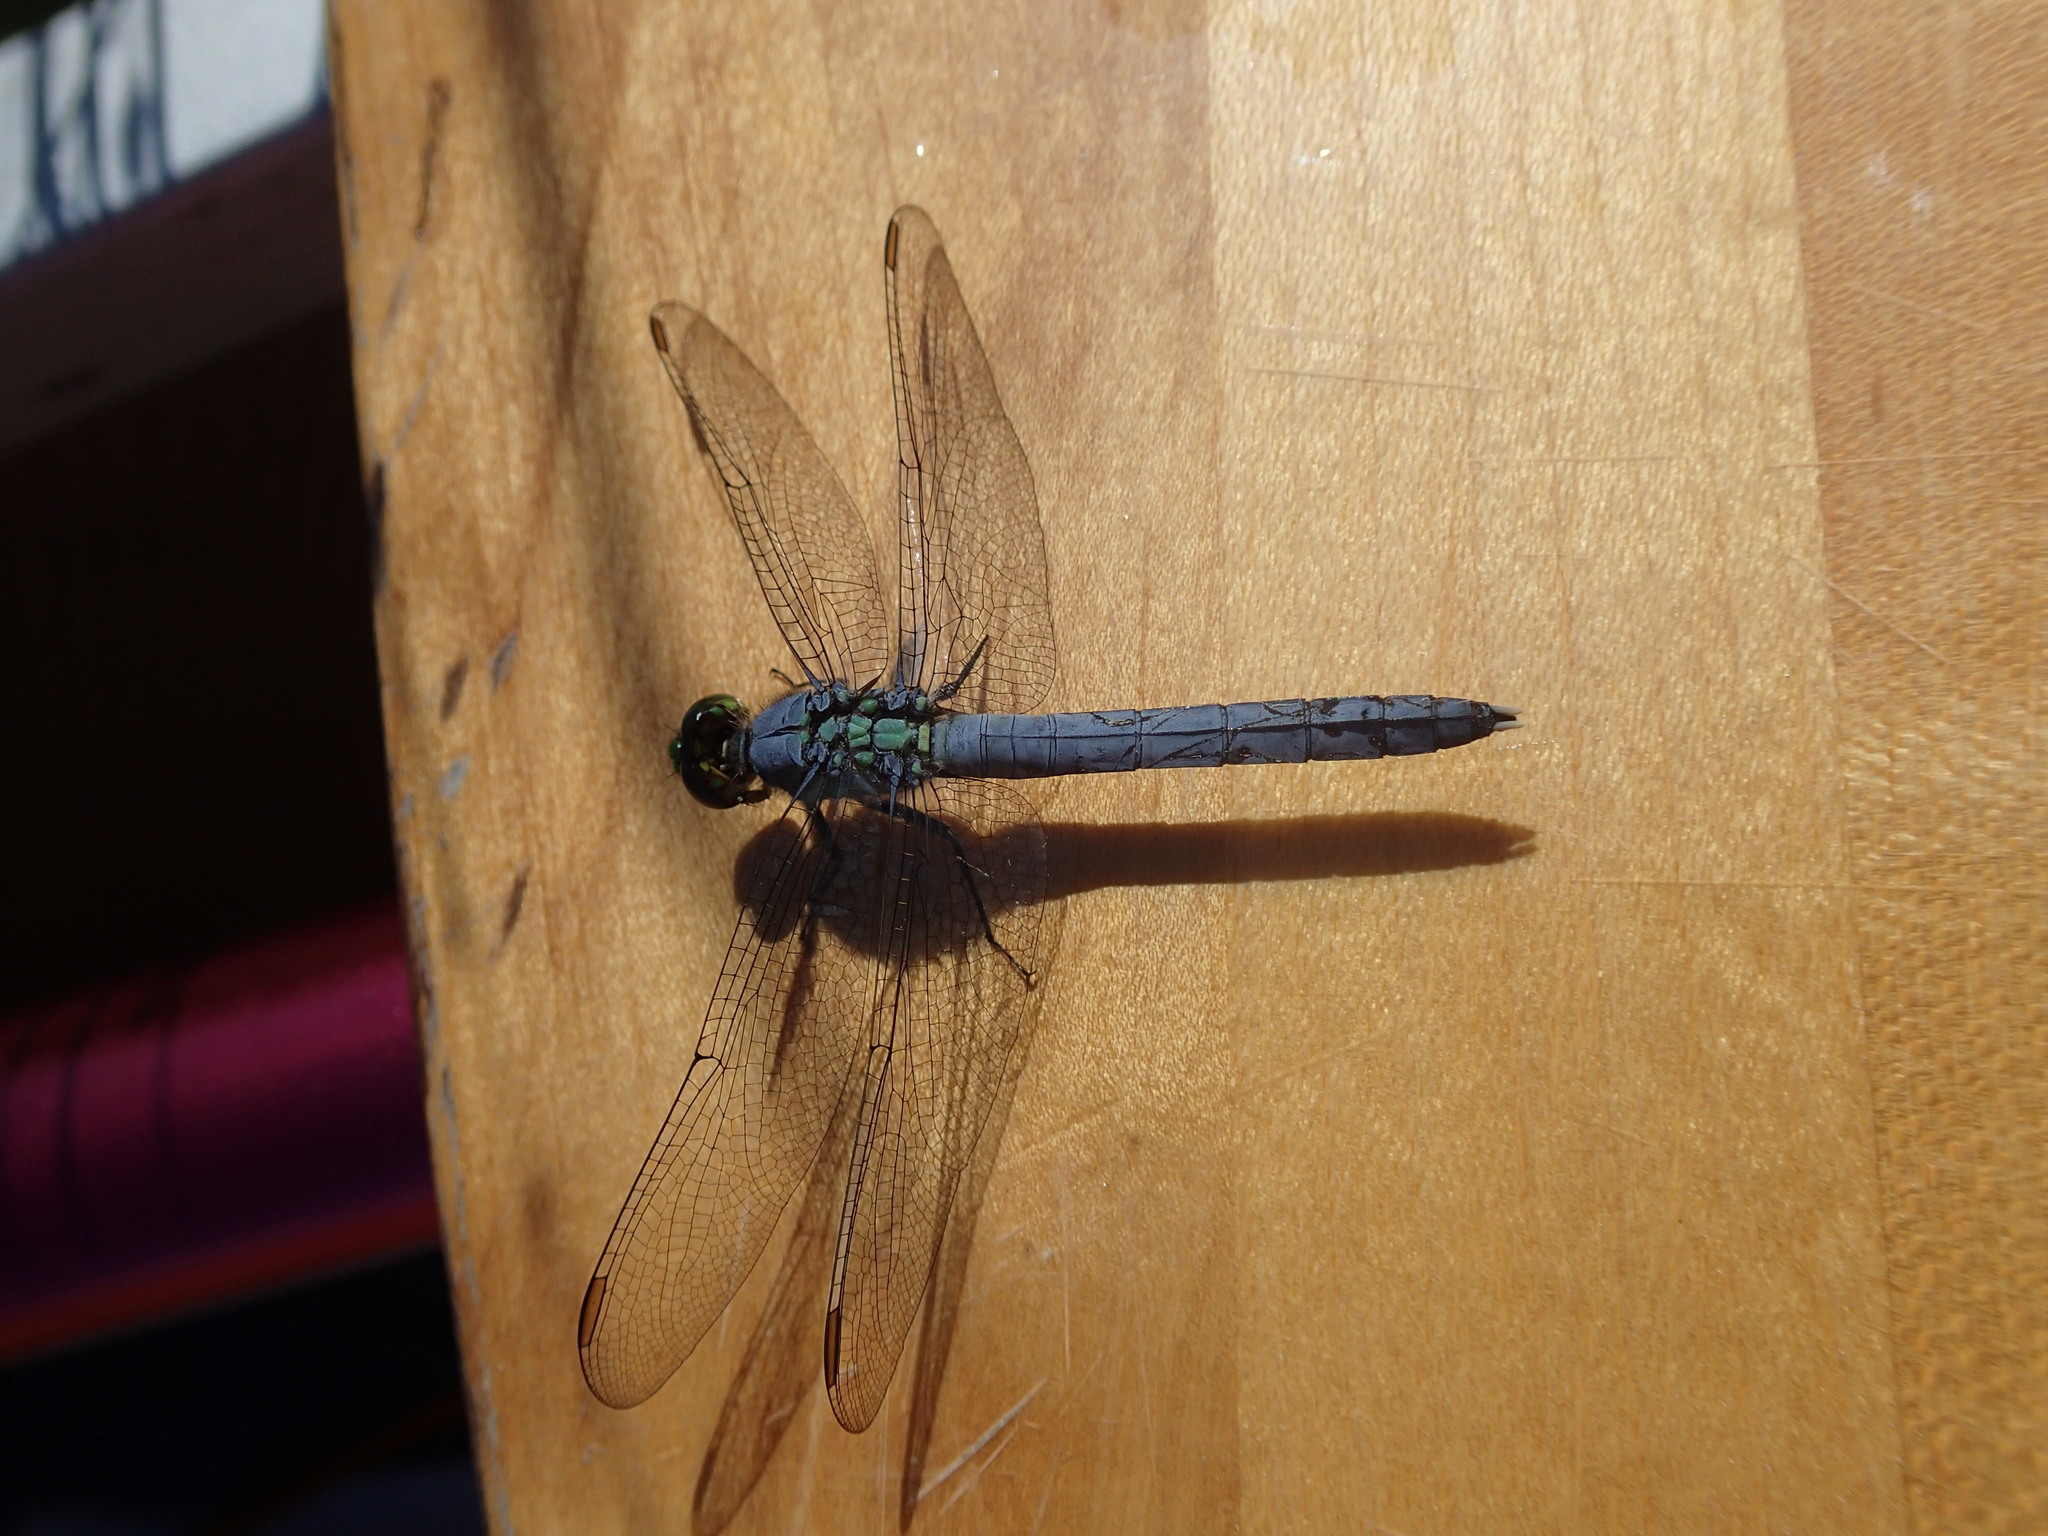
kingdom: Animalia
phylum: Arthropoda
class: Insecta
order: Odonata
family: Libellulidae
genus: Erythemis
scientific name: Erythemis simplicicollis
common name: Eastern pondhawk
